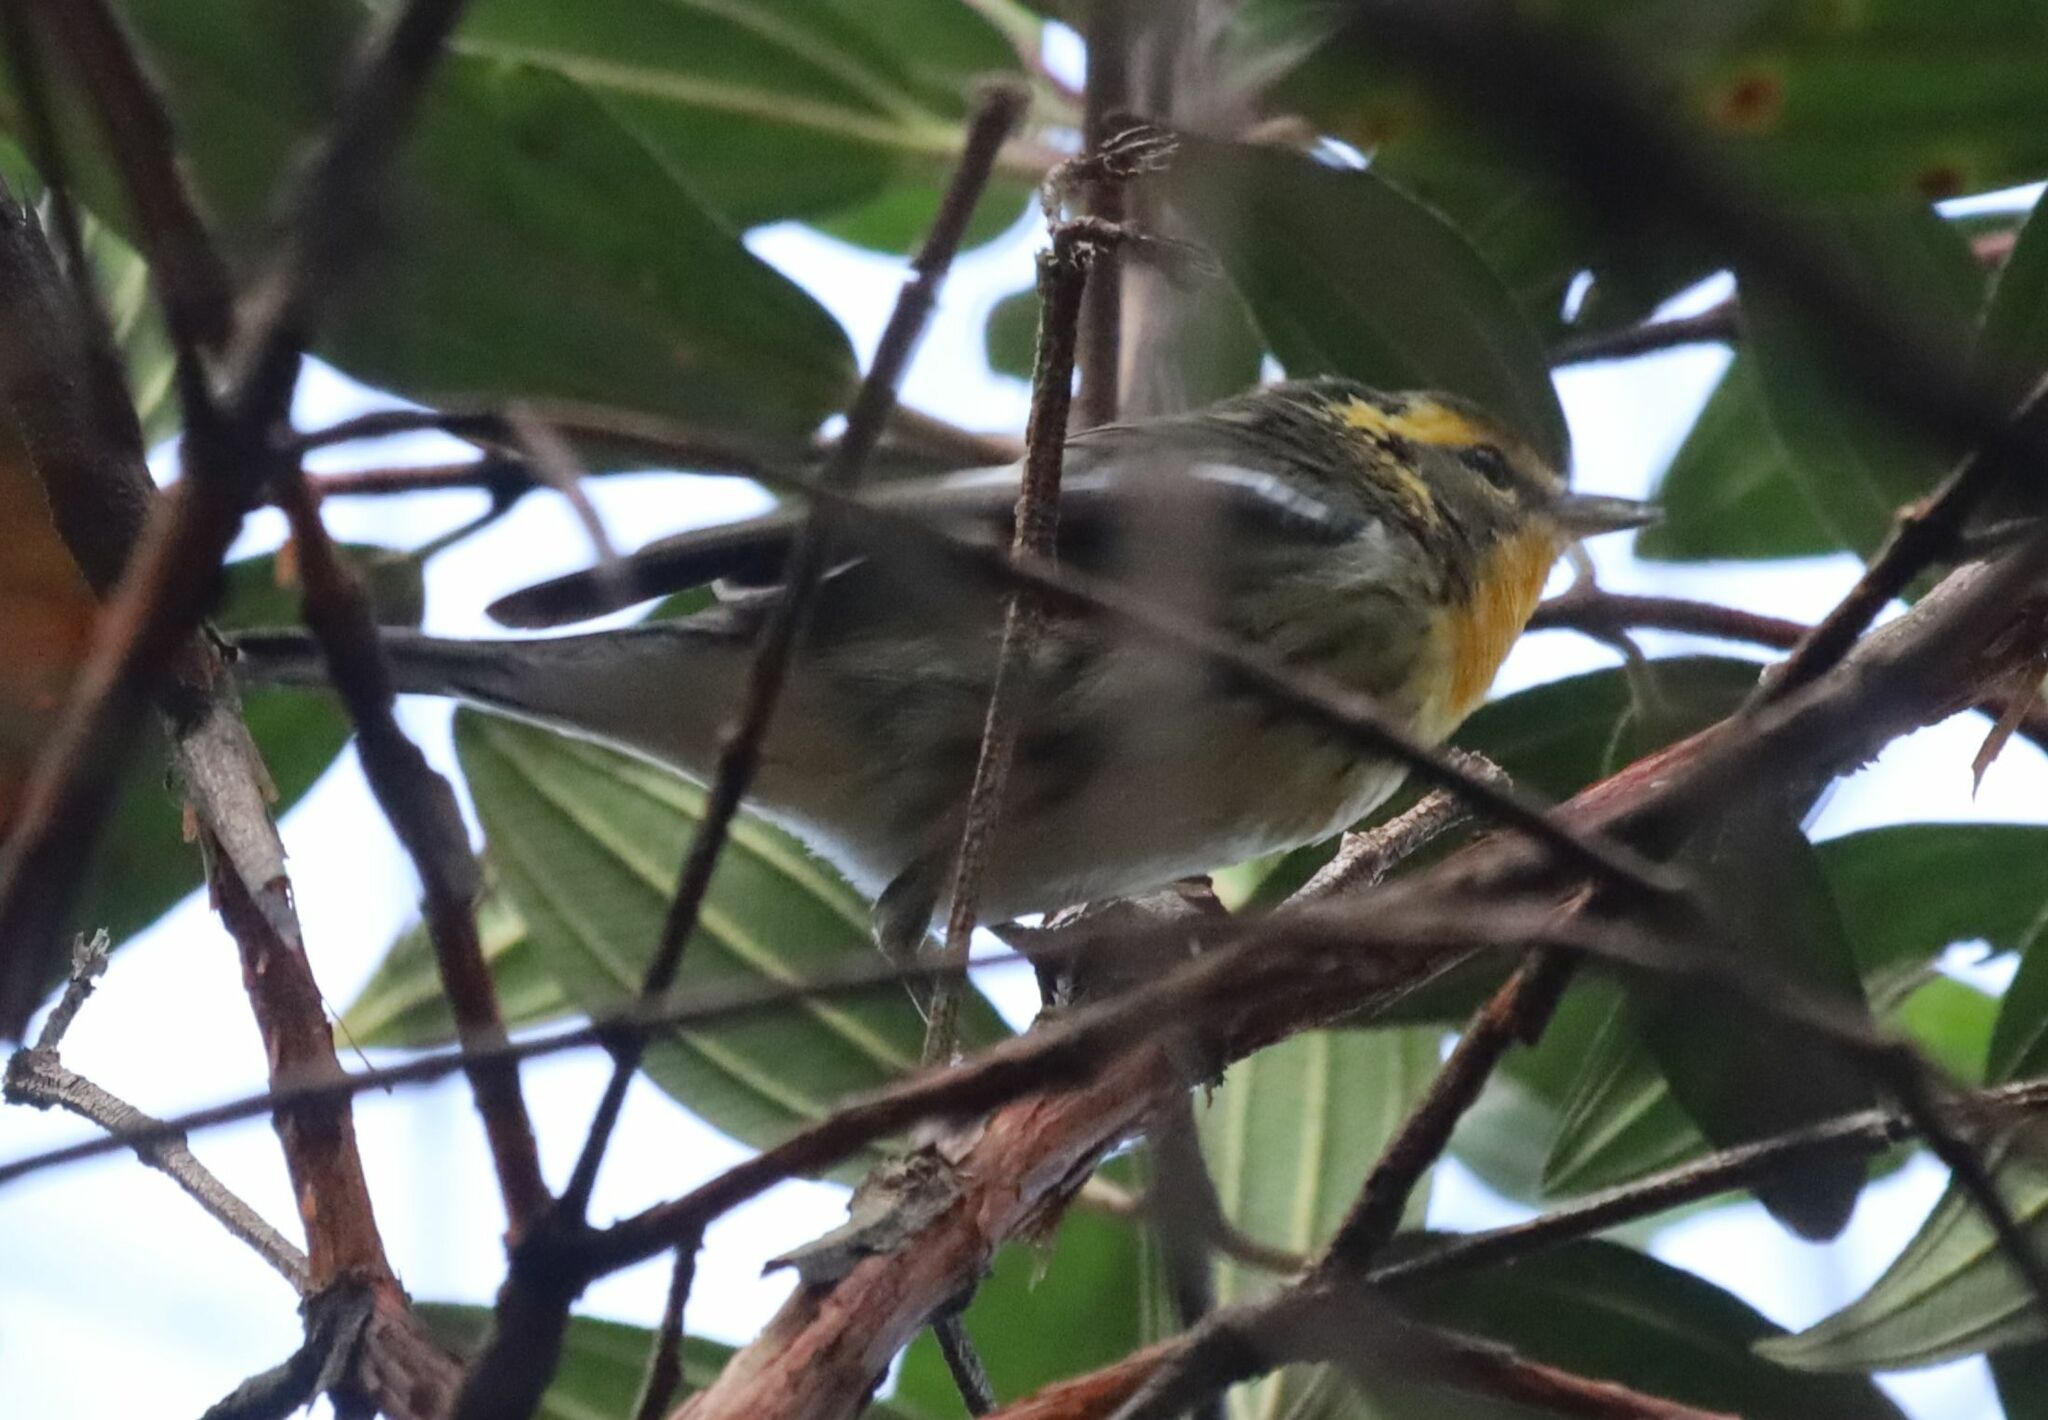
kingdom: Animalia
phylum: Chordata
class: Aves
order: Passeriformes
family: Parulidae
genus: Setophaga
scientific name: Setophaga fusca
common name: Blackburnian warbler
